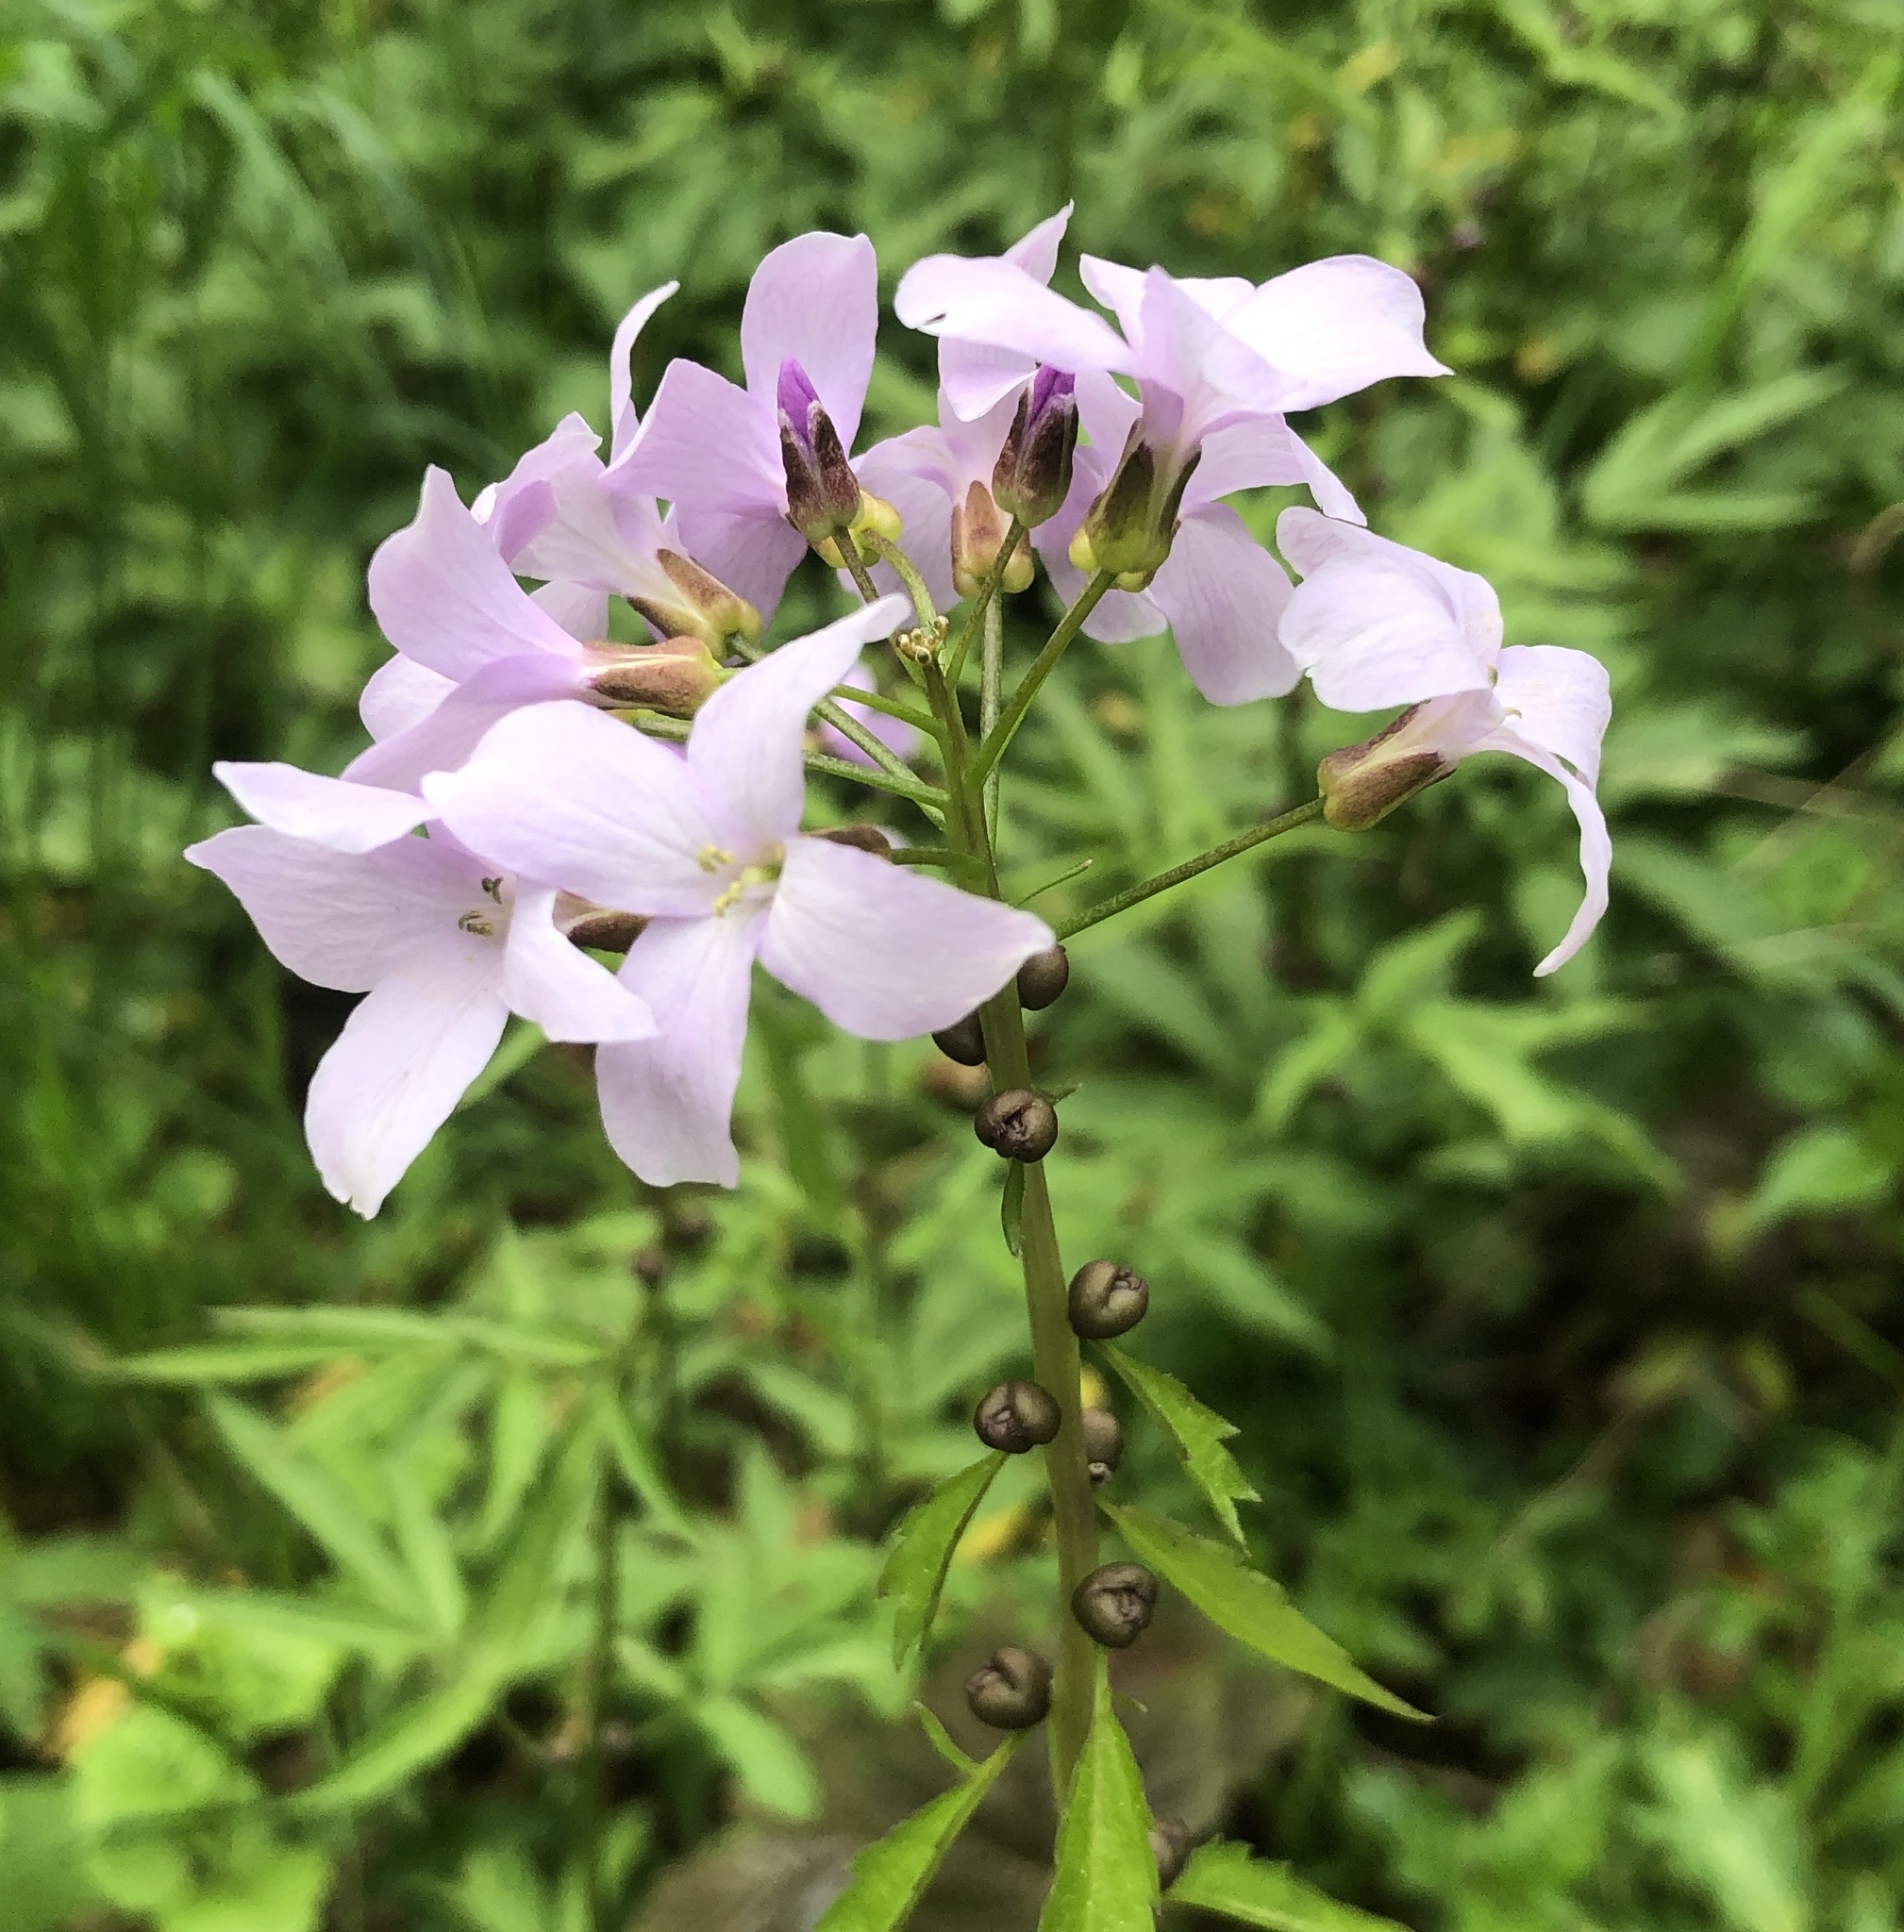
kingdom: Plantae
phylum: Tracheophyta
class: Magnoliopsida
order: Brassicales
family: Brassicaceae
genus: Cardamine
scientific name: Cardamine bulbifera
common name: Coralroot bittercress
